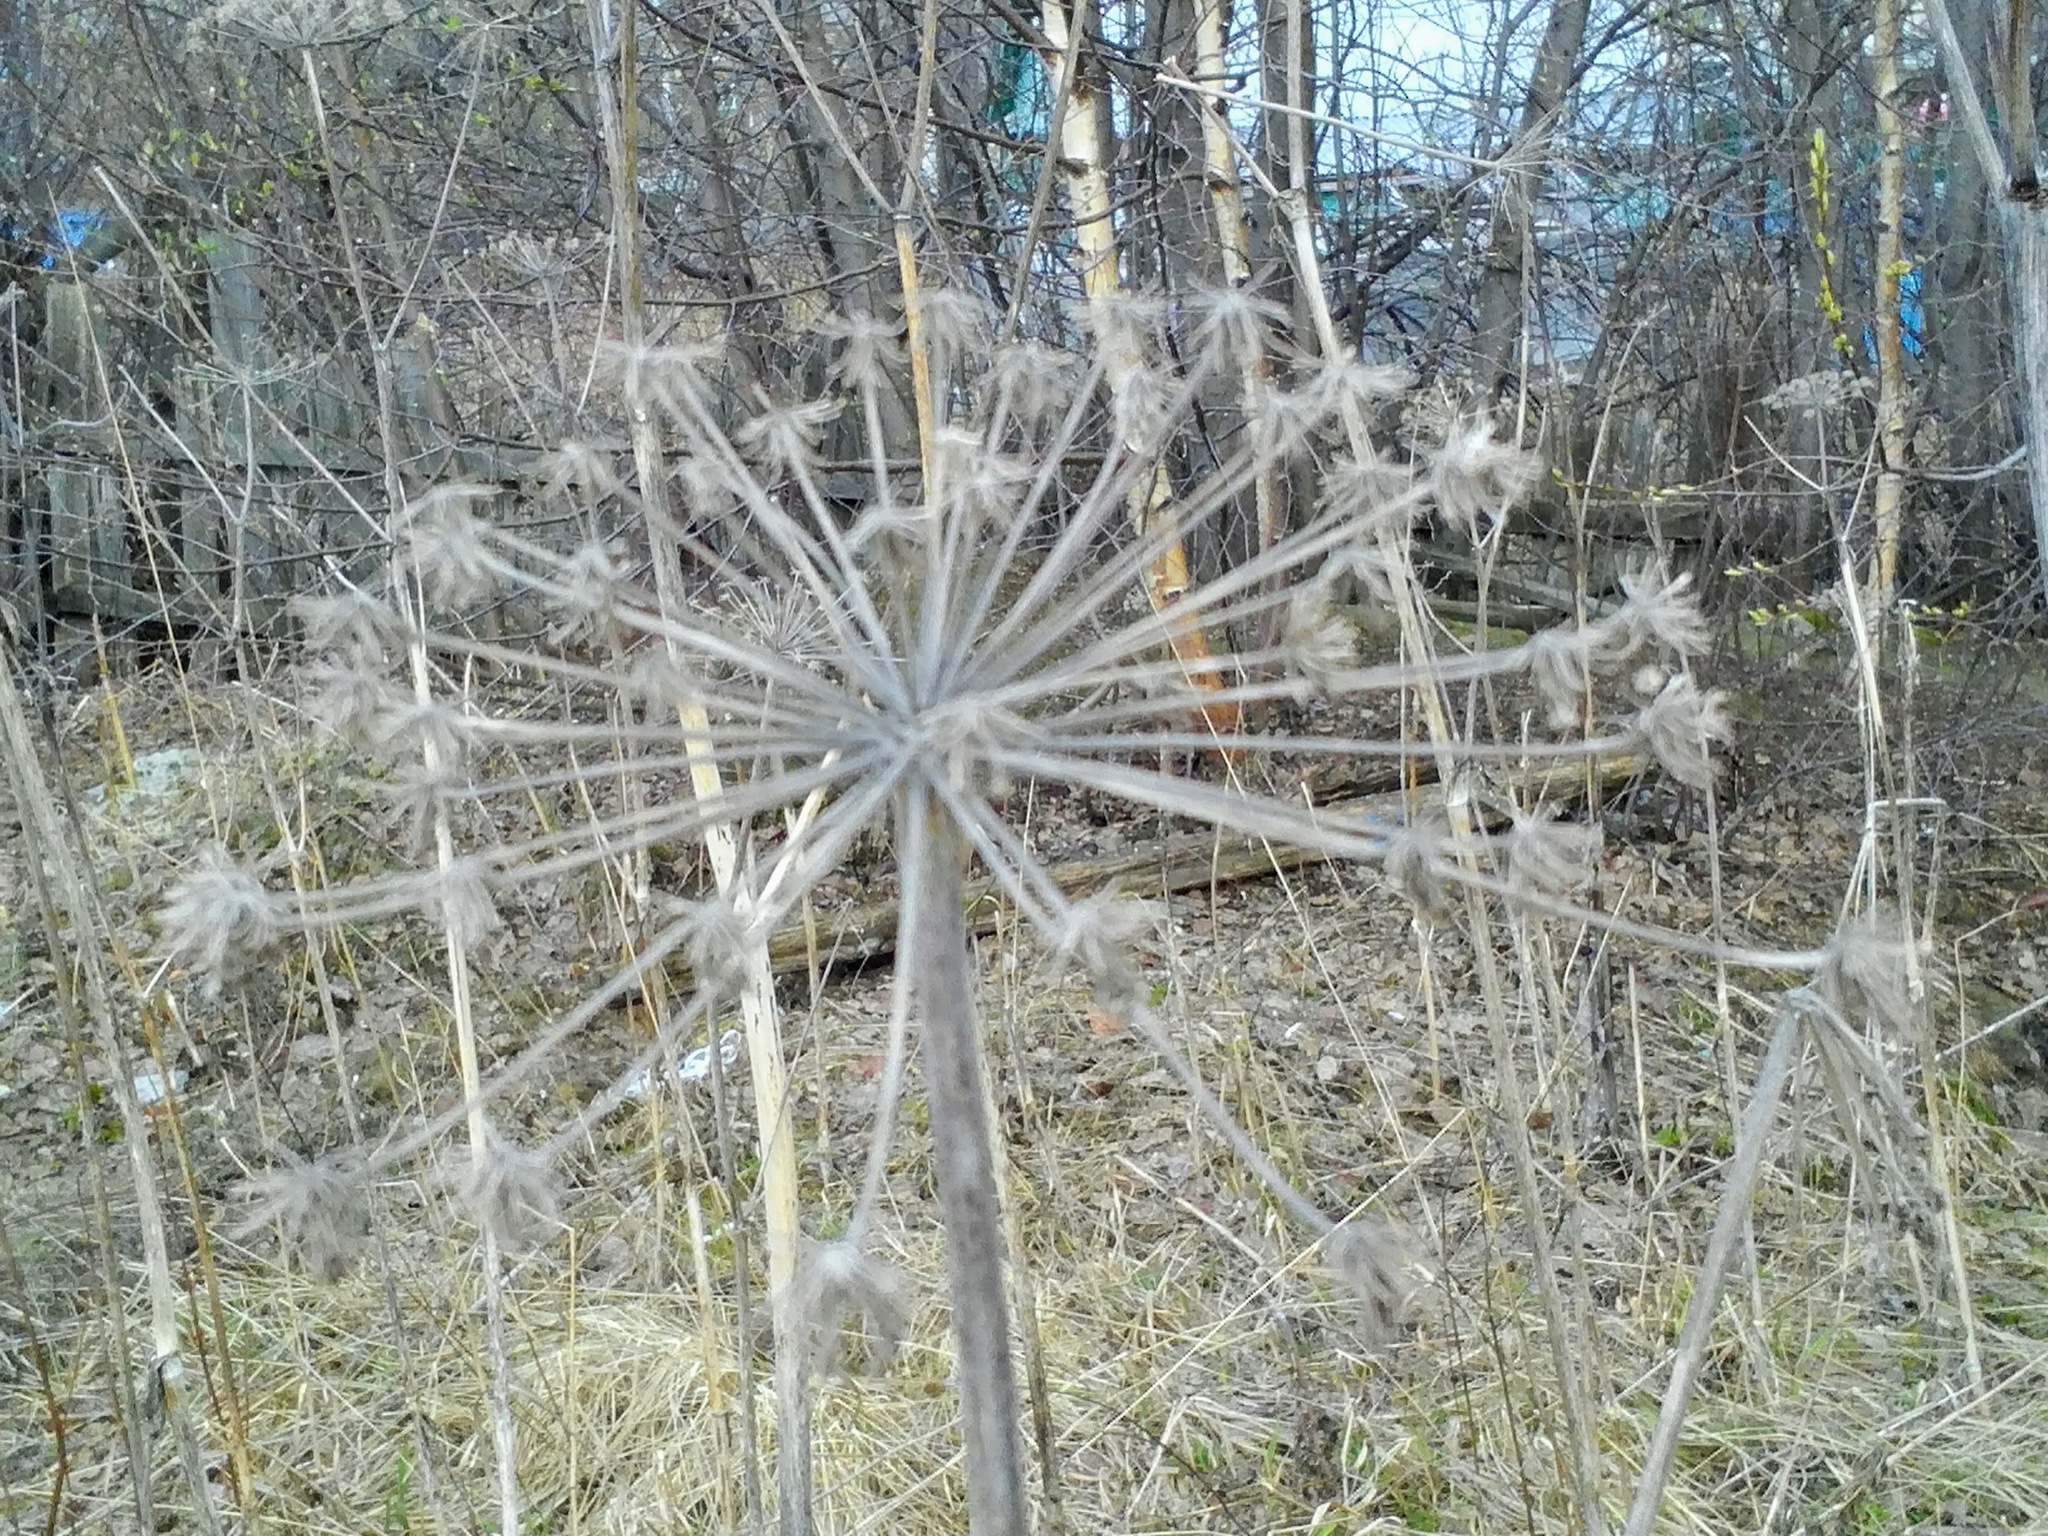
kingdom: Plantae
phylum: Tracheophyta
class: Magnoliopsida
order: Apiales
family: Apiaceae
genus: Angelica
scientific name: Angelica sylvestris
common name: Wild angelica
